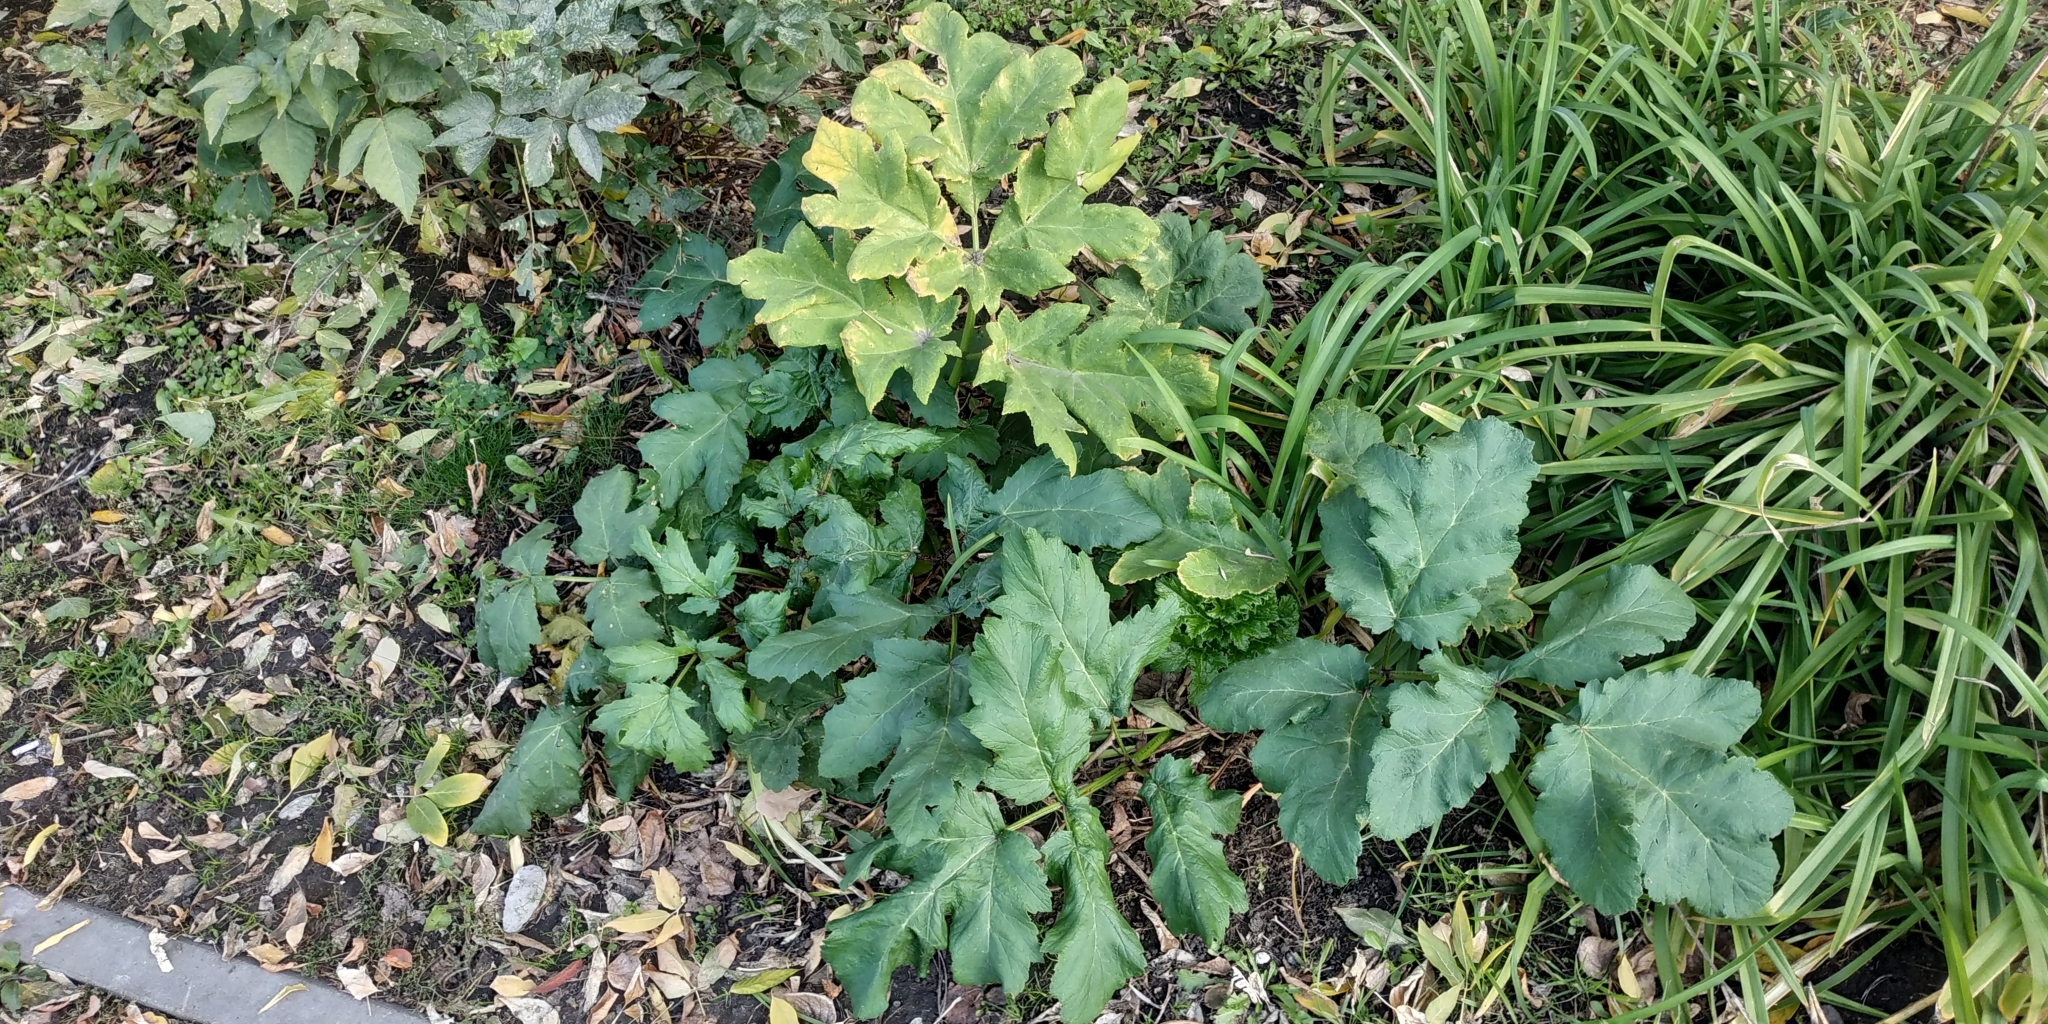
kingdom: Plantae
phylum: Tracheophyta
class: Magnoliopsida
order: Apiales
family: Apiaceae
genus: Heracleum
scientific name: Heracleum sosnowskyi
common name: Sosnowsky's hogweed
